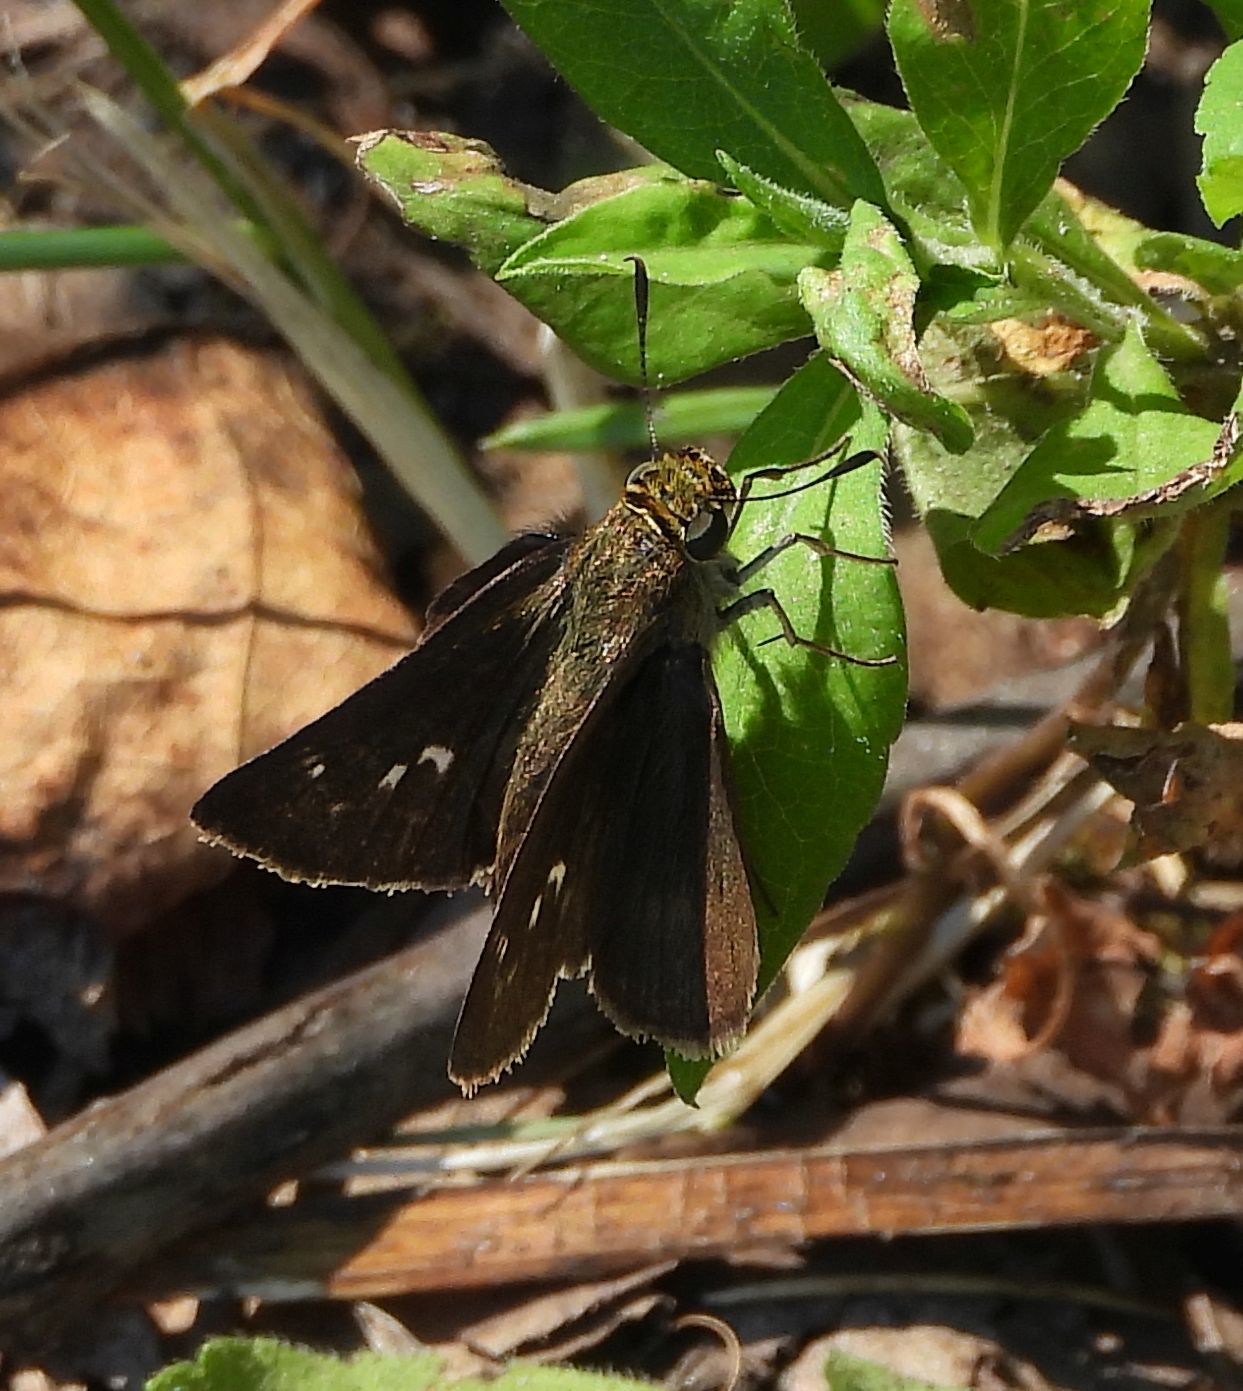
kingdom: Animalia
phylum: Arthropoda
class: Insecta
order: Lepidoptera
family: Hesperiidae
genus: Euphyes
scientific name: Euphyes vestris
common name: Dun skipper
